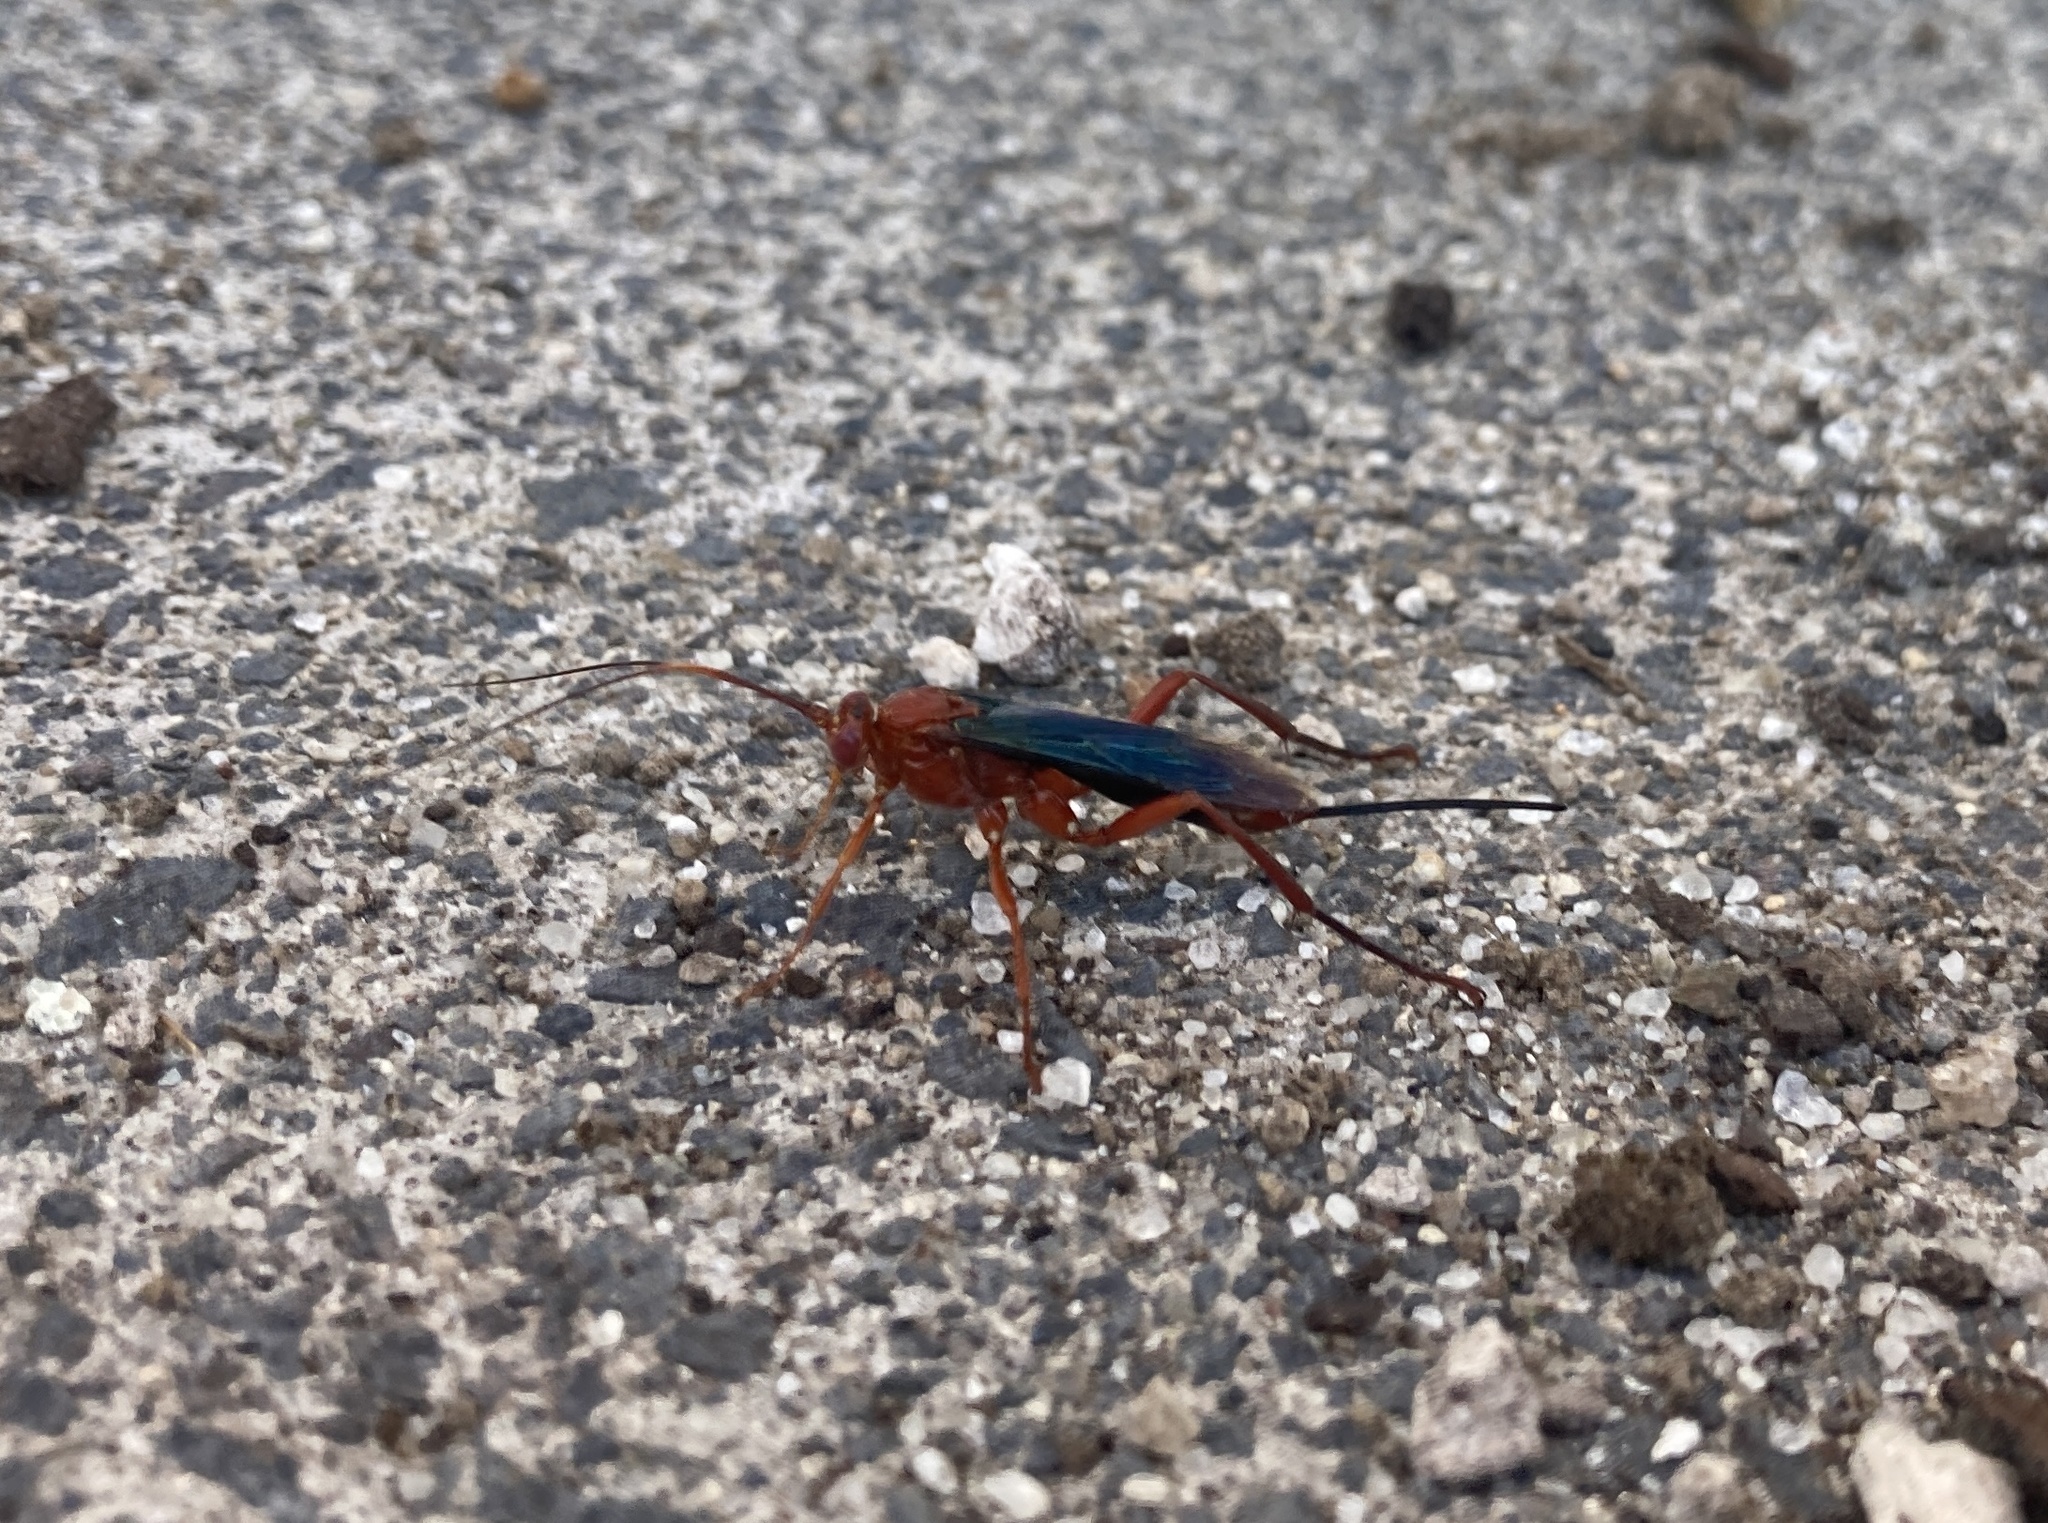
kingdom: Animalia
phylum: Arthropoda
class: Insecta
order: Hymenoptera
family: Ichneumonidae
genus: Lissopimpla
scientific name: Lissopimpla excelsa
